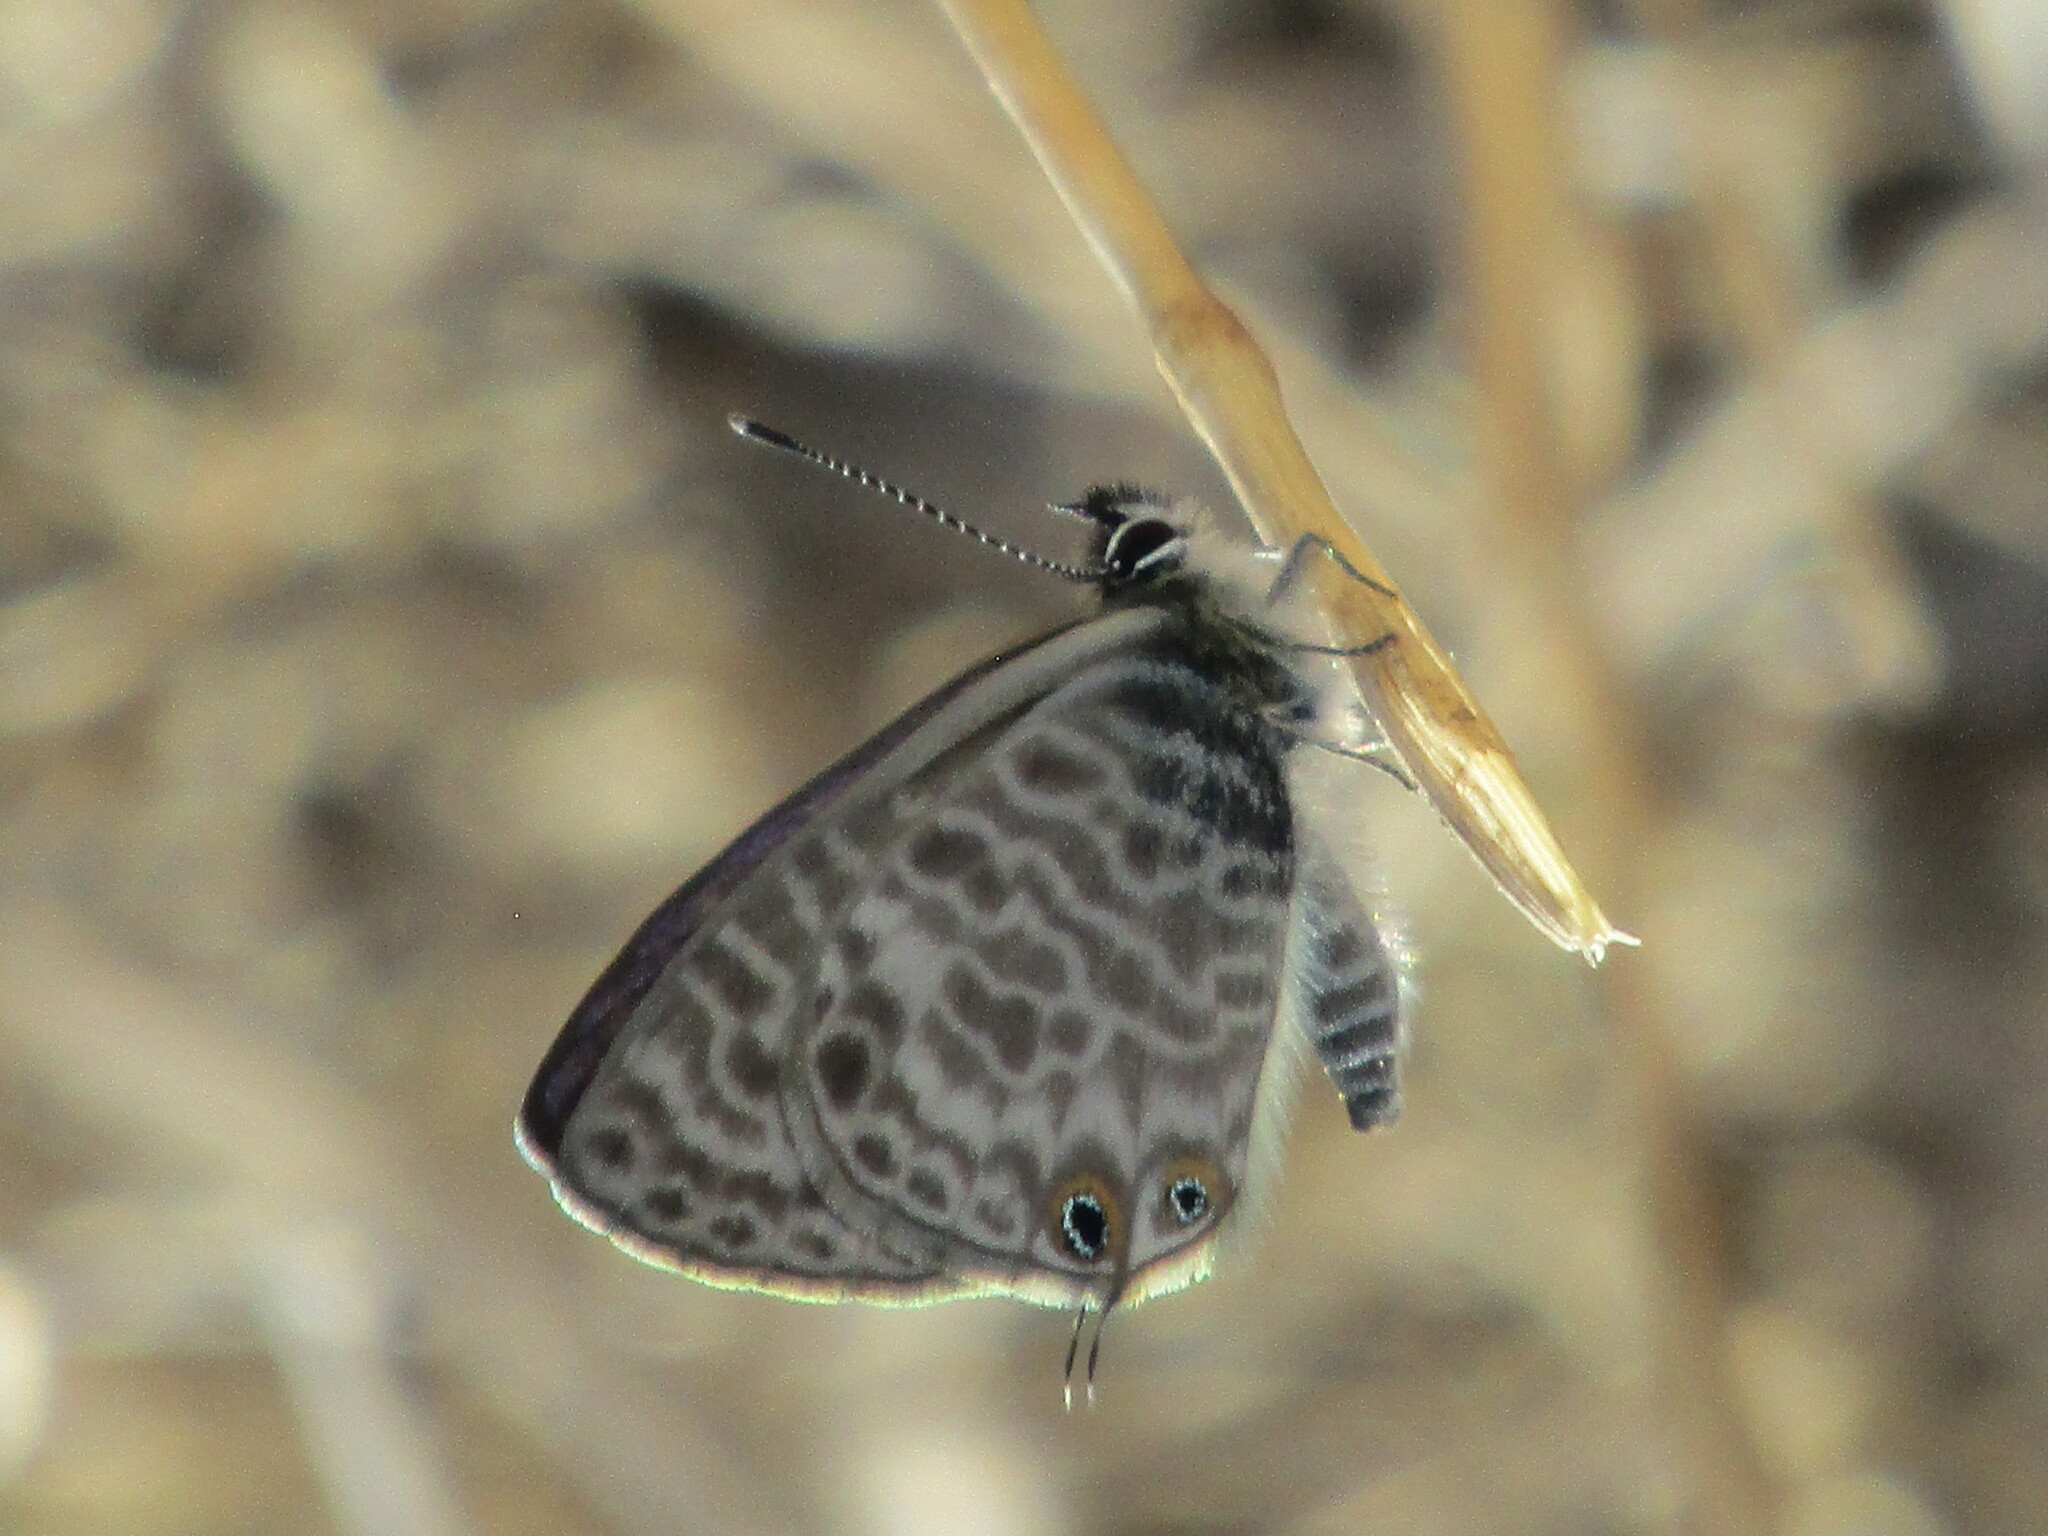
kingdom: Animalia
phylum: Arthropoda
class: Insecta
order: Lepidoptera
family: Lycaenidae
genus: Leptotes
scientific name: Leptotes pirithous
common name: Lang's short-tailed blue
